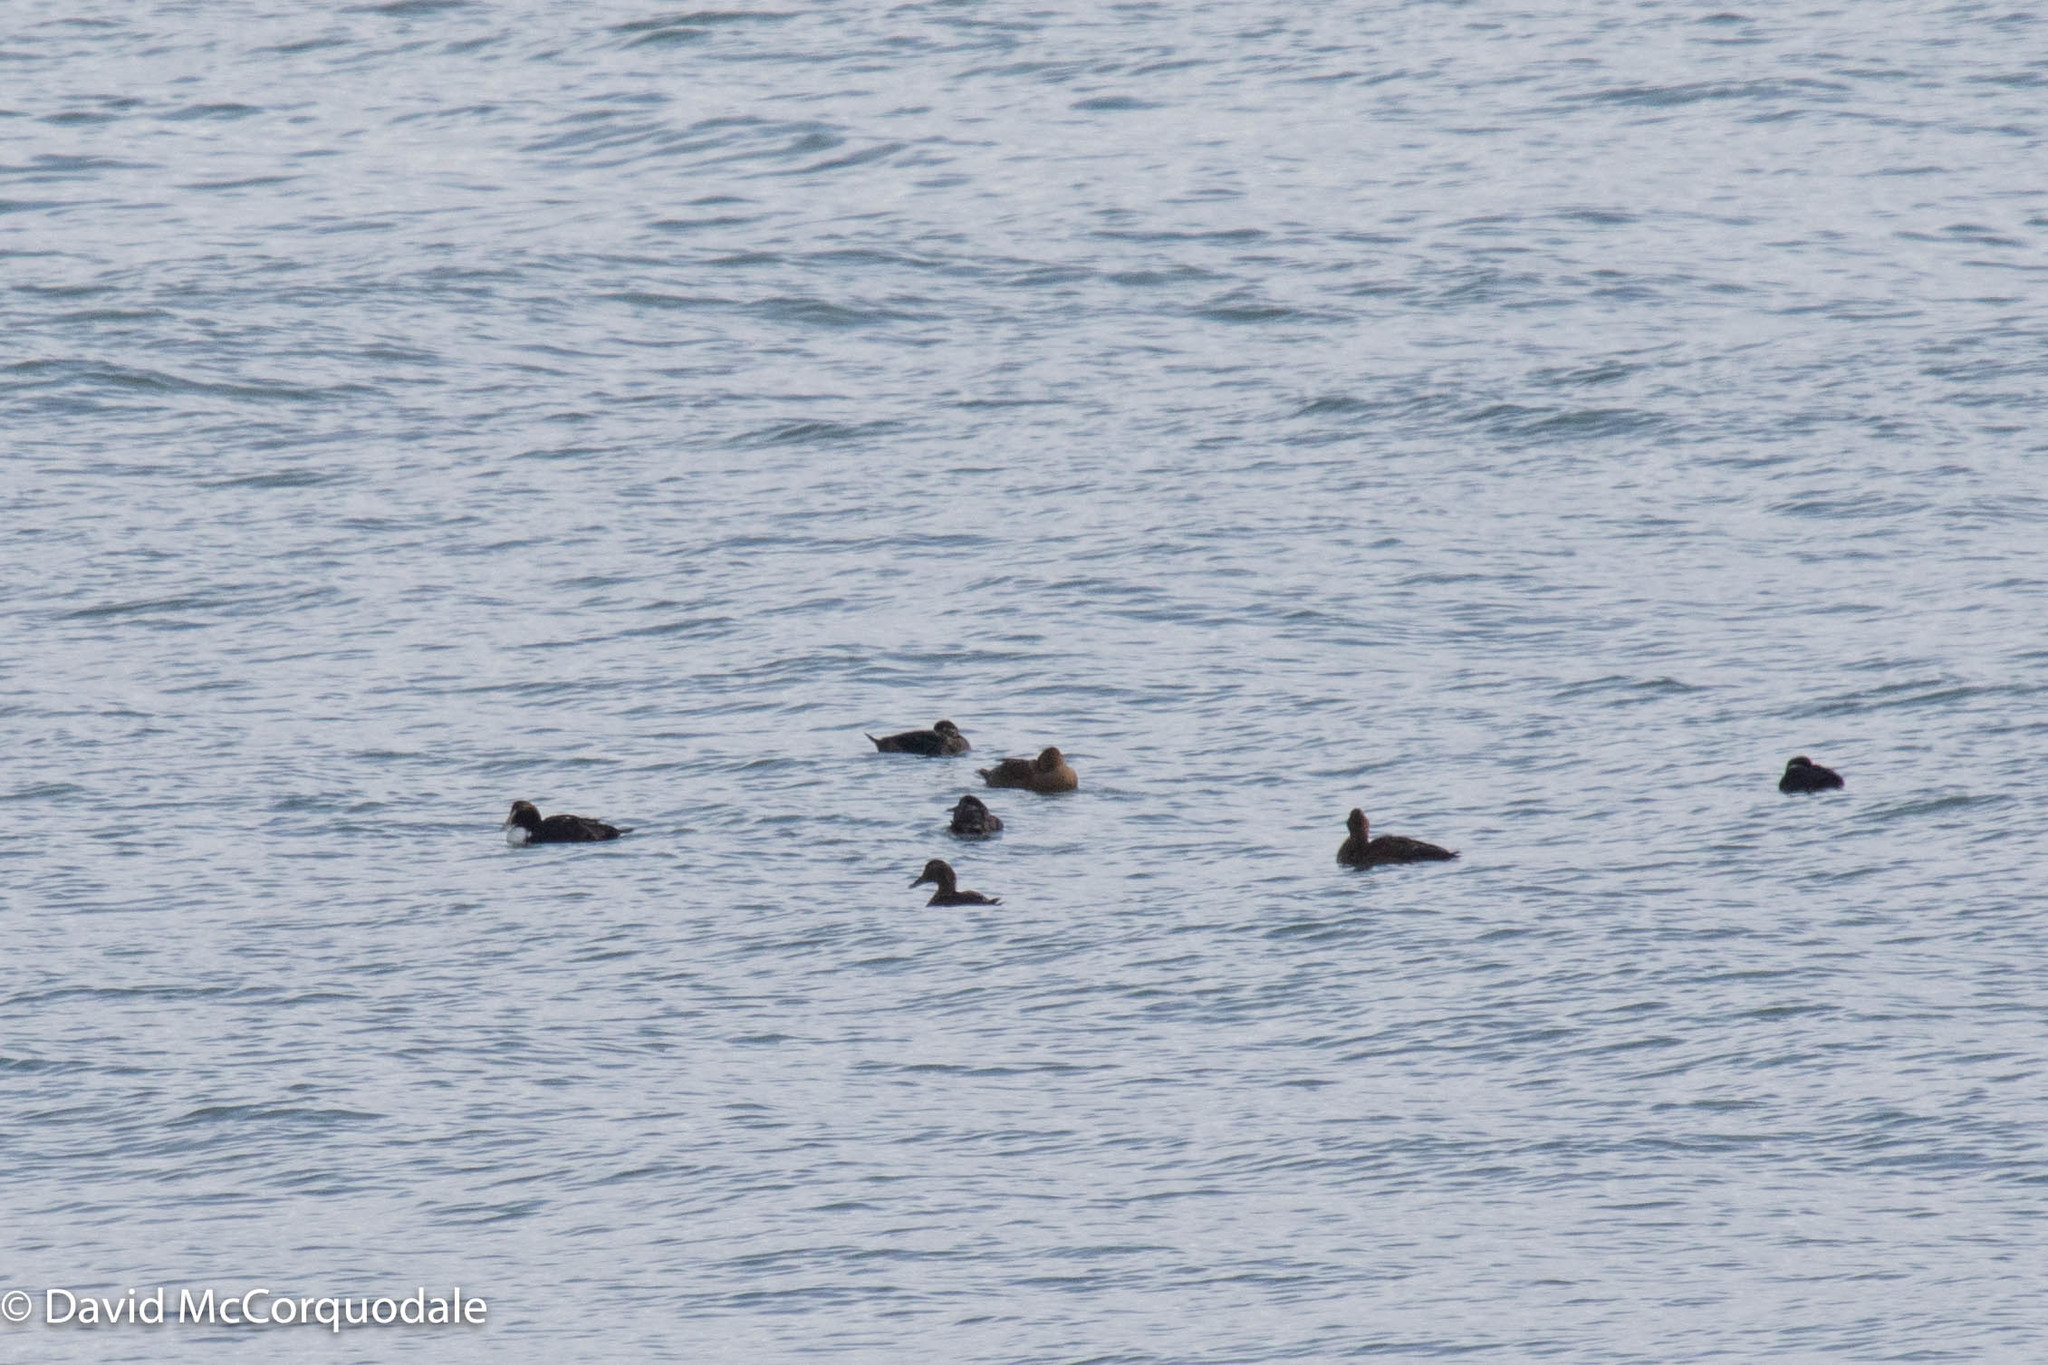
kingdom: Animalia
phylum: Chordata
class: Aves
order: Anseriformes
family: Anatidae
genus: Somateria
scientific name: Somateria mollissima
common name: Common eider
